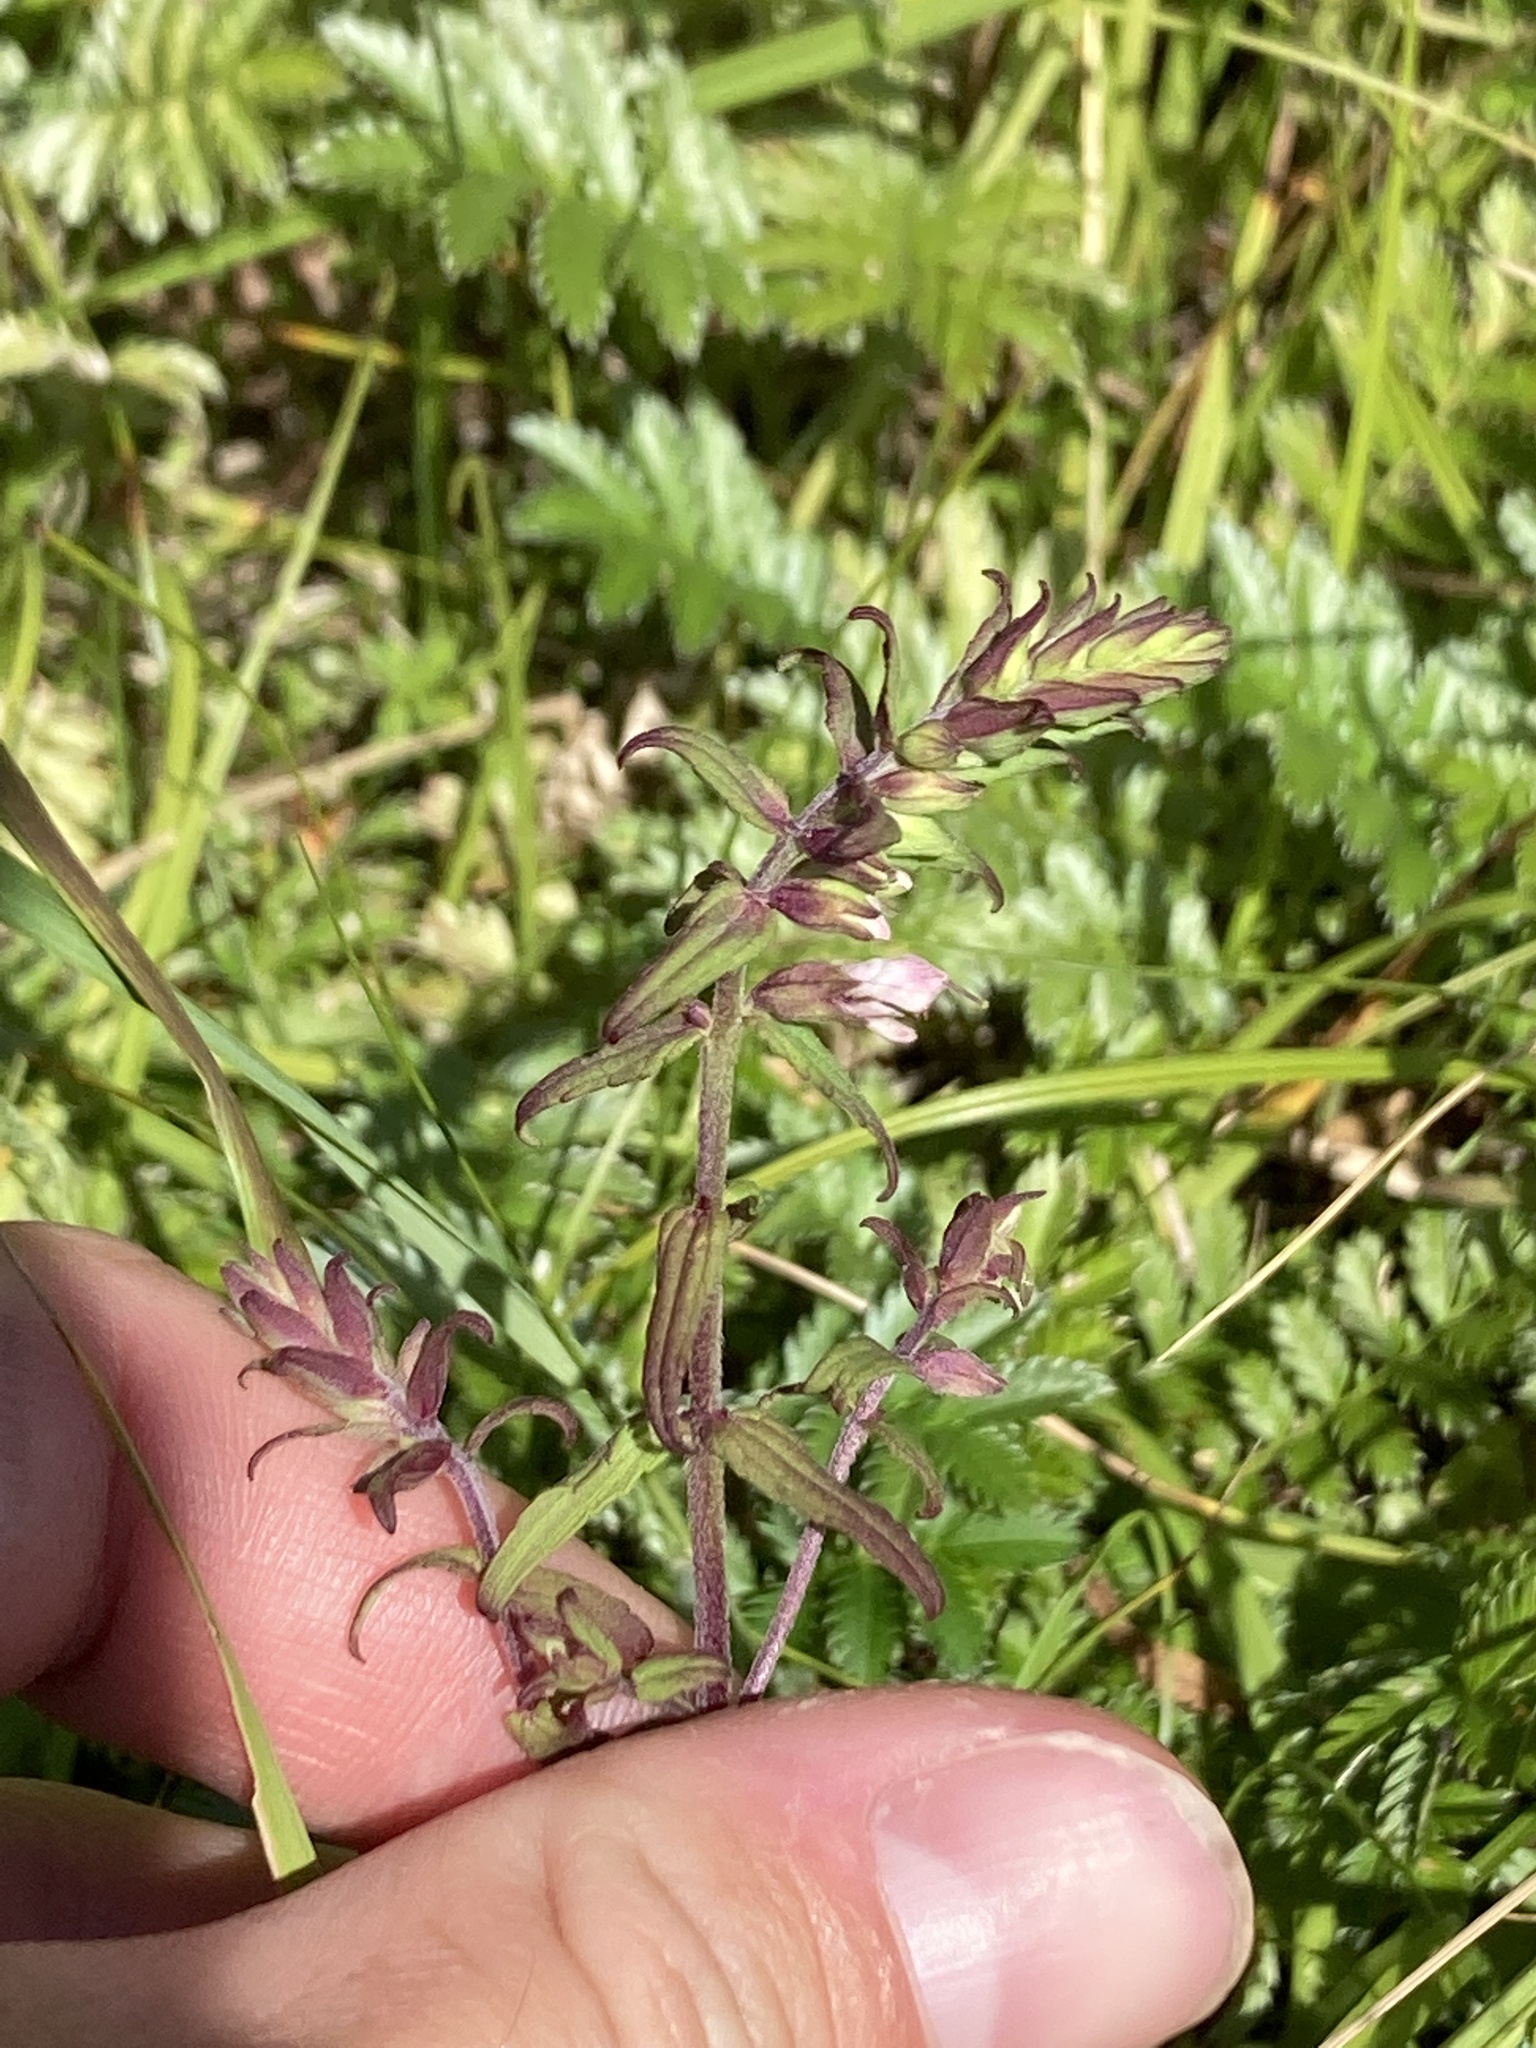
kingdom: Plantae
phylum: Tracheophyta
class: Magnoliopsida
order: Lamiales
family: Orobanchaceae
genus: Odontites
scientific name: Odontites vulgaris
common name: Broomrape
